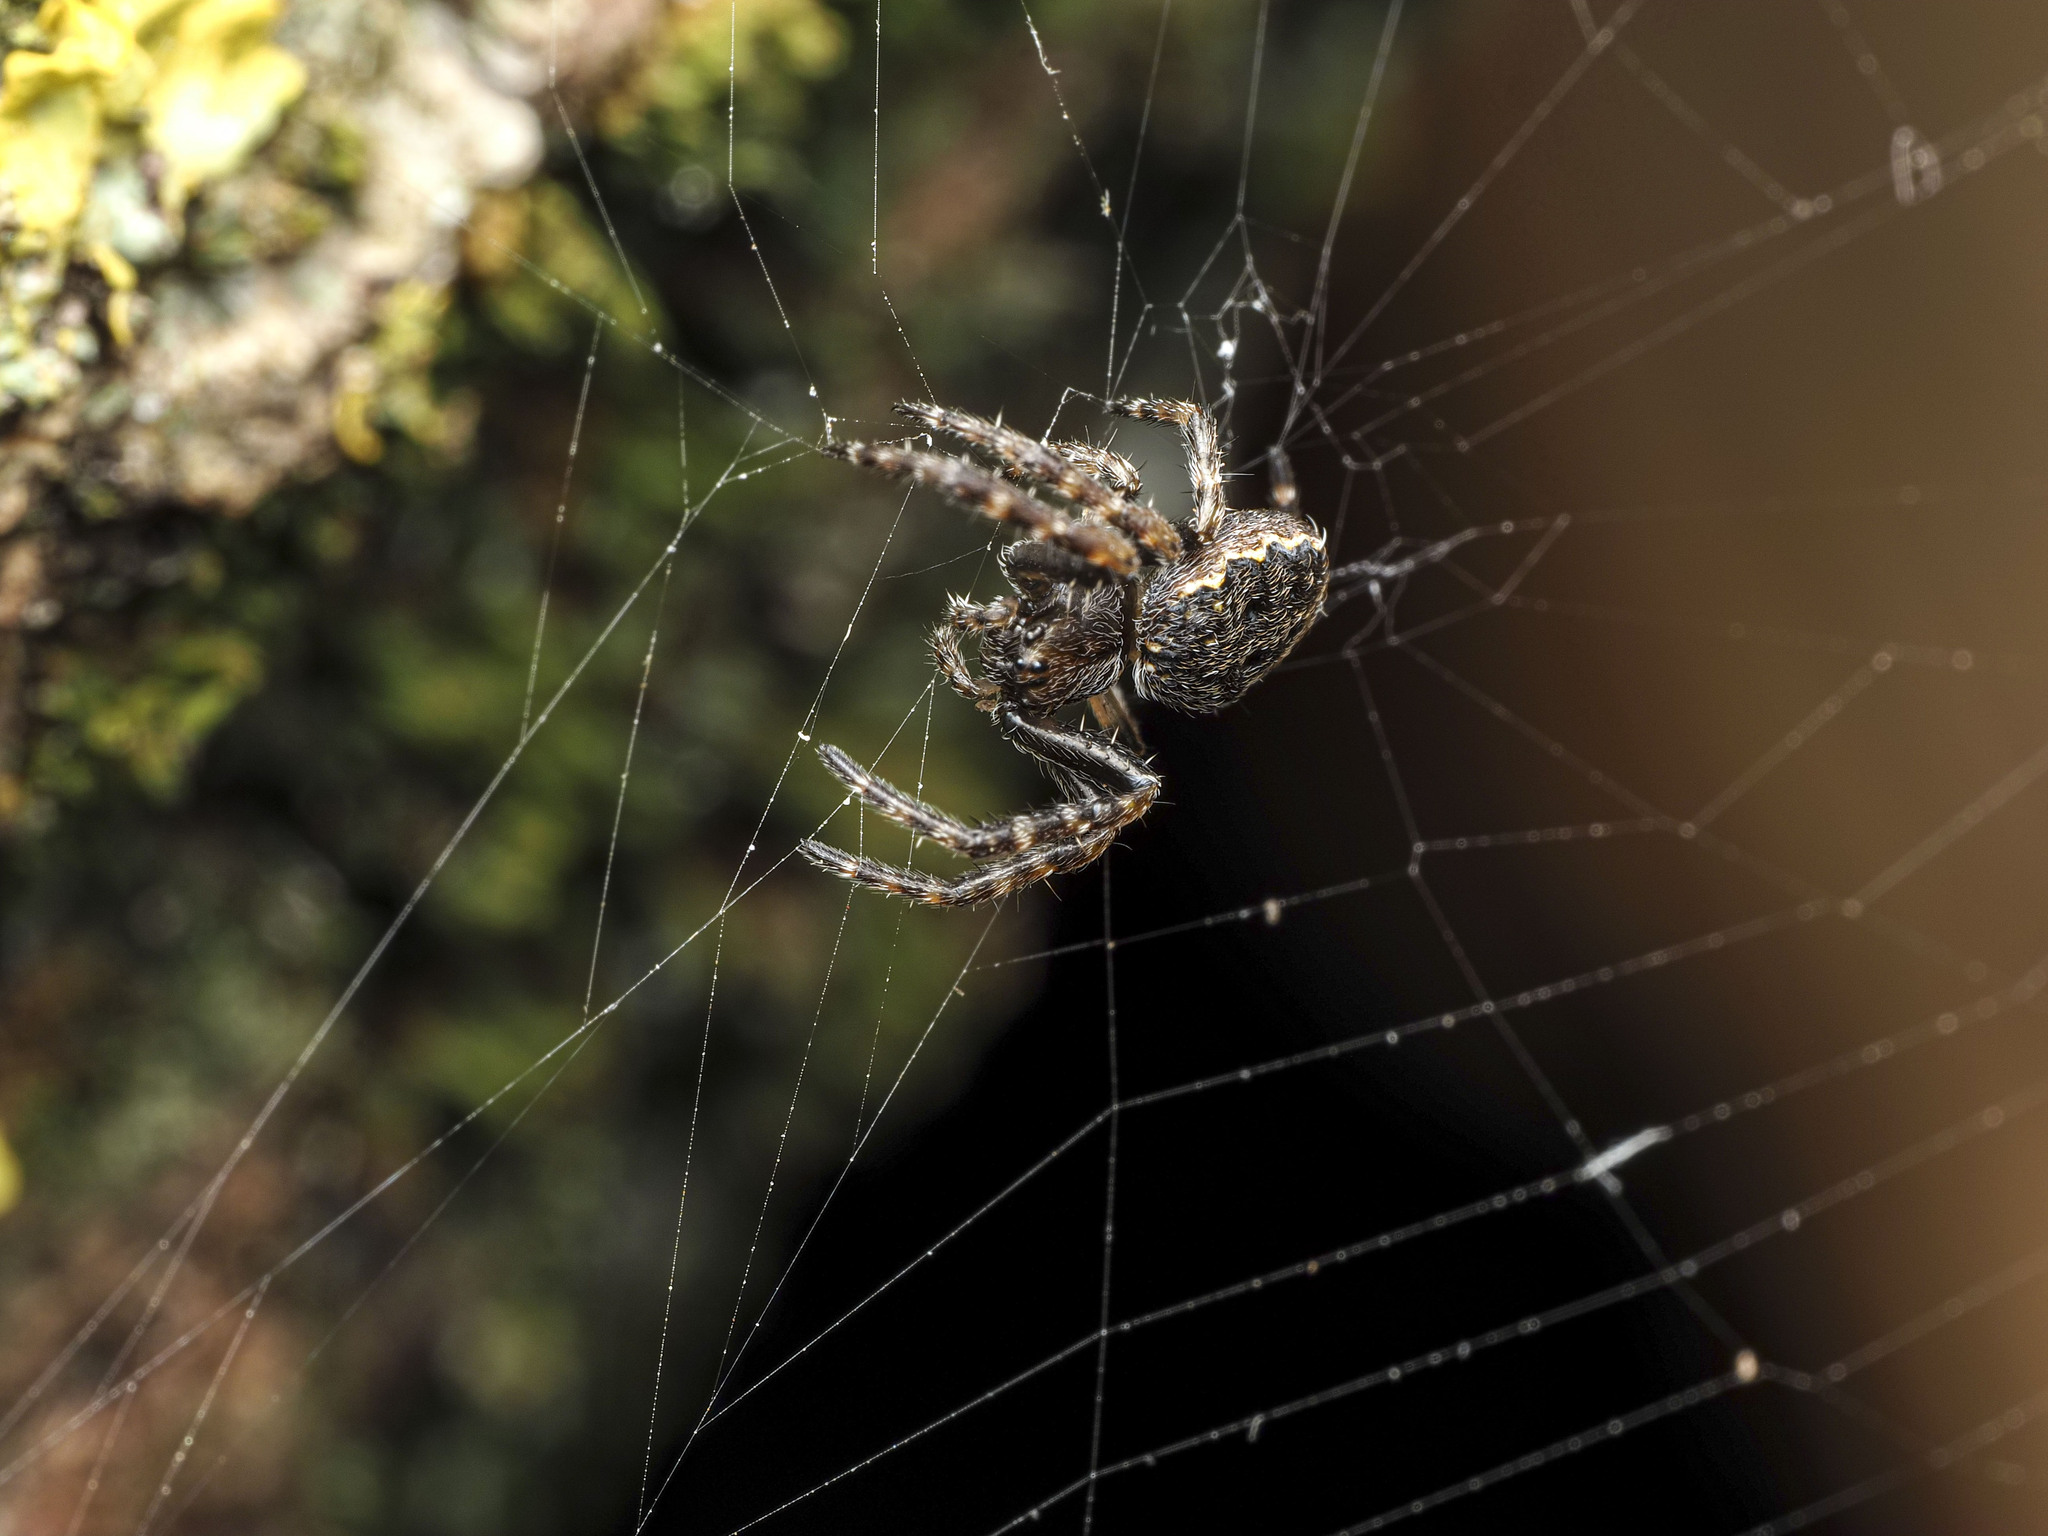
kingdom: Animalia
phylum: Arthropoda
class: Arachnida
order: Araneae
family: Araneidae
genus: Nuctenea
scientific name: Nuctenea umbratica
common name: Toad spider
